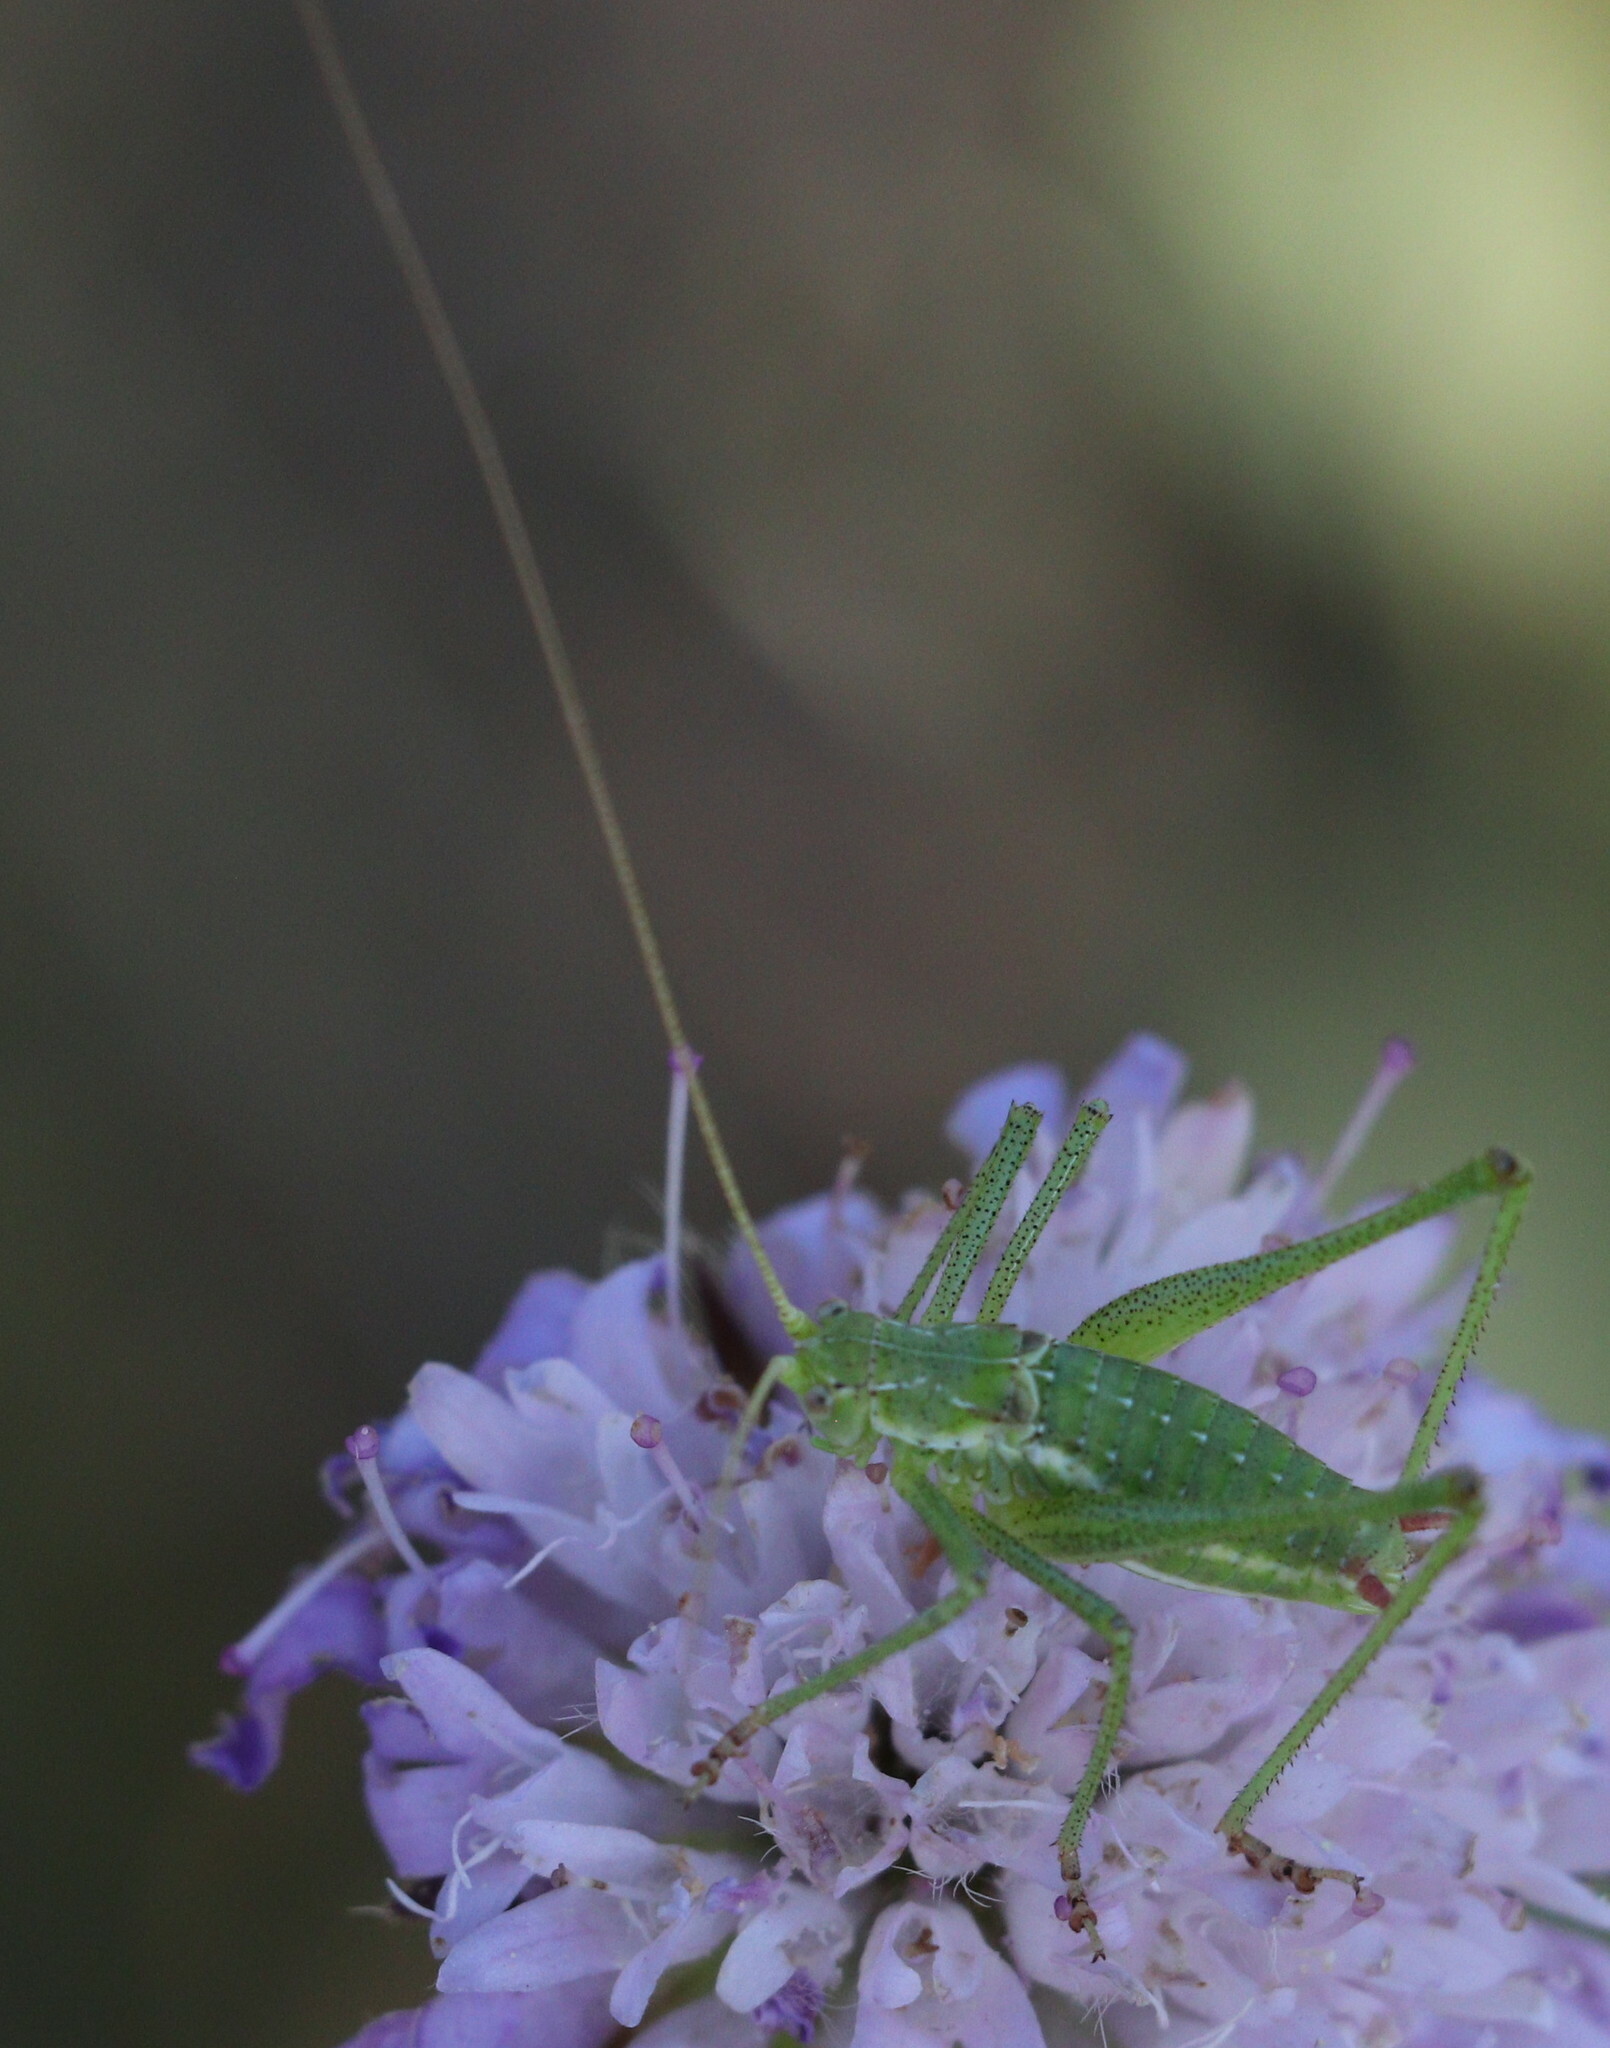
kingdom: Animalia
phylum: Arthropoda
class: Insecta
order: Orthoptera
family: Tettigoniidae
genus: Leptophyes
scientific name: Leptophyes albovittata
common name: Striped bush-cricket
